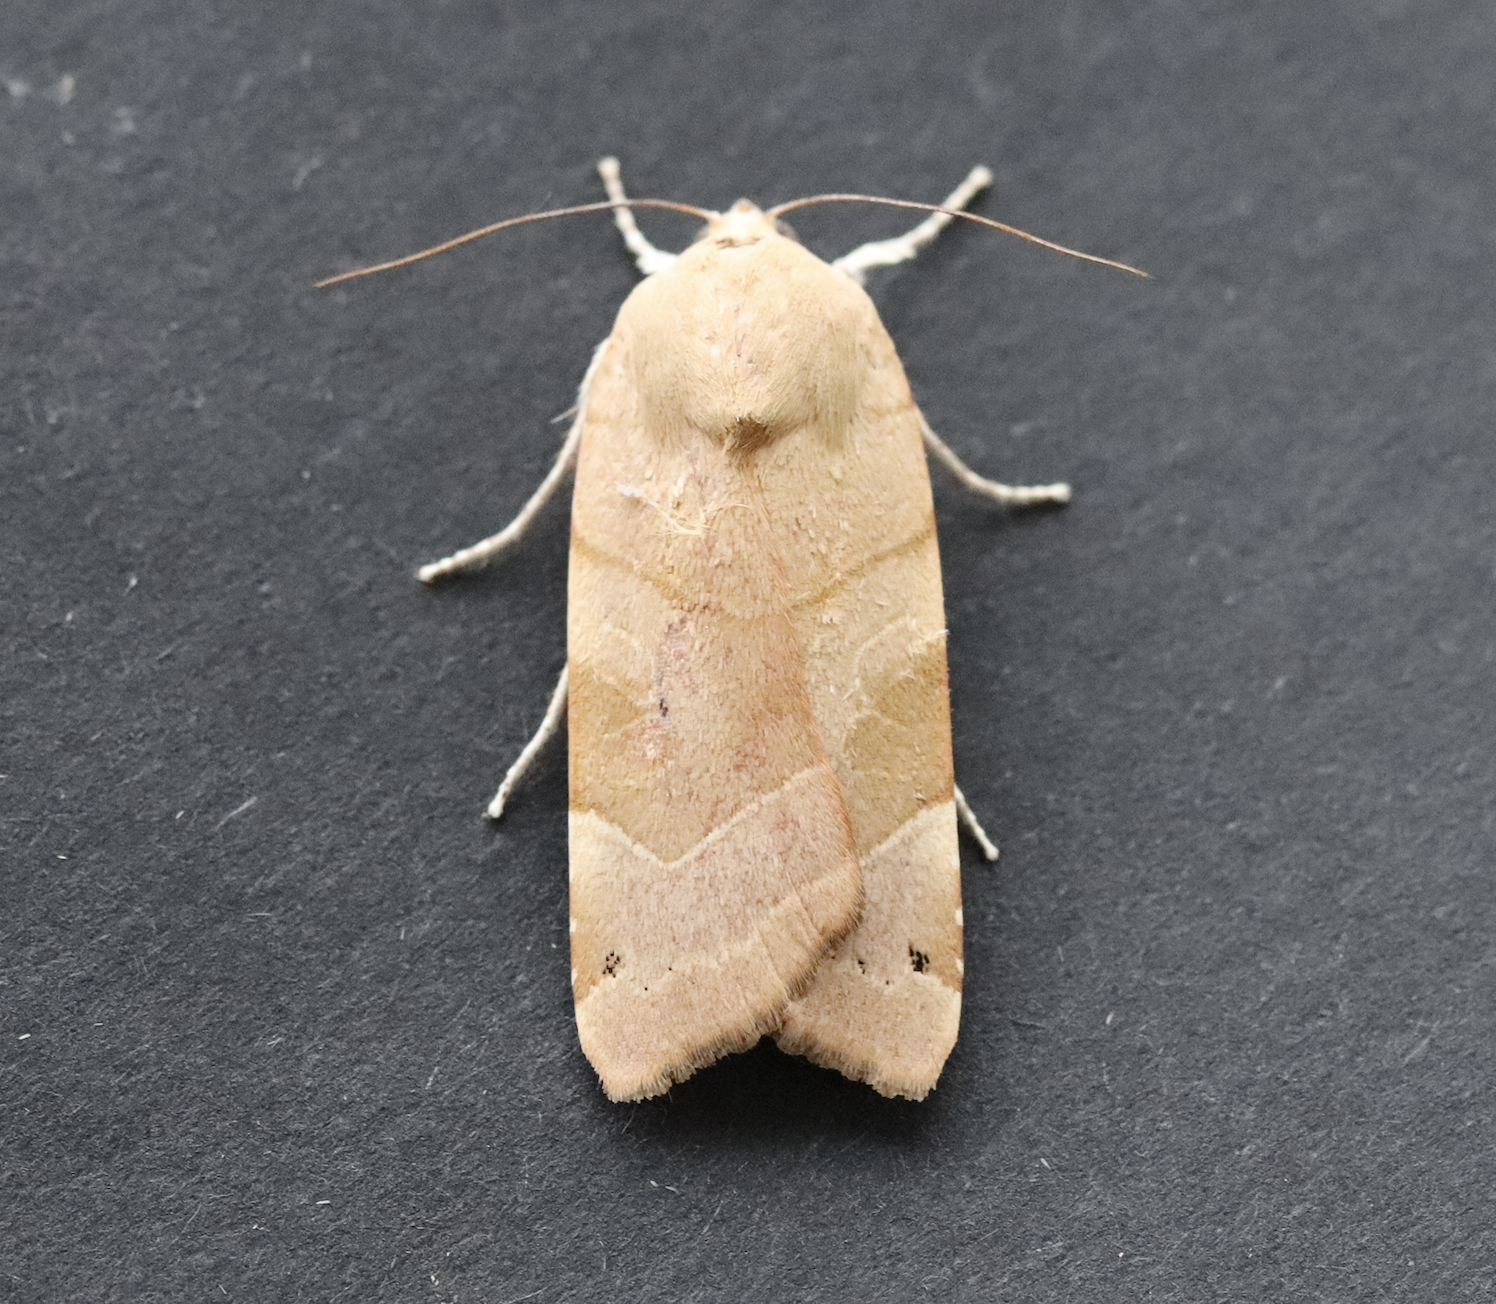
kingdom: Animalia
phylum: Arthropoda
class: Insecta
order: Lepidoptera
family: Noctuidae
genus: Noctua
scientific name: Noctua fimbriata
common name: Broad-bordered yellow underwing
